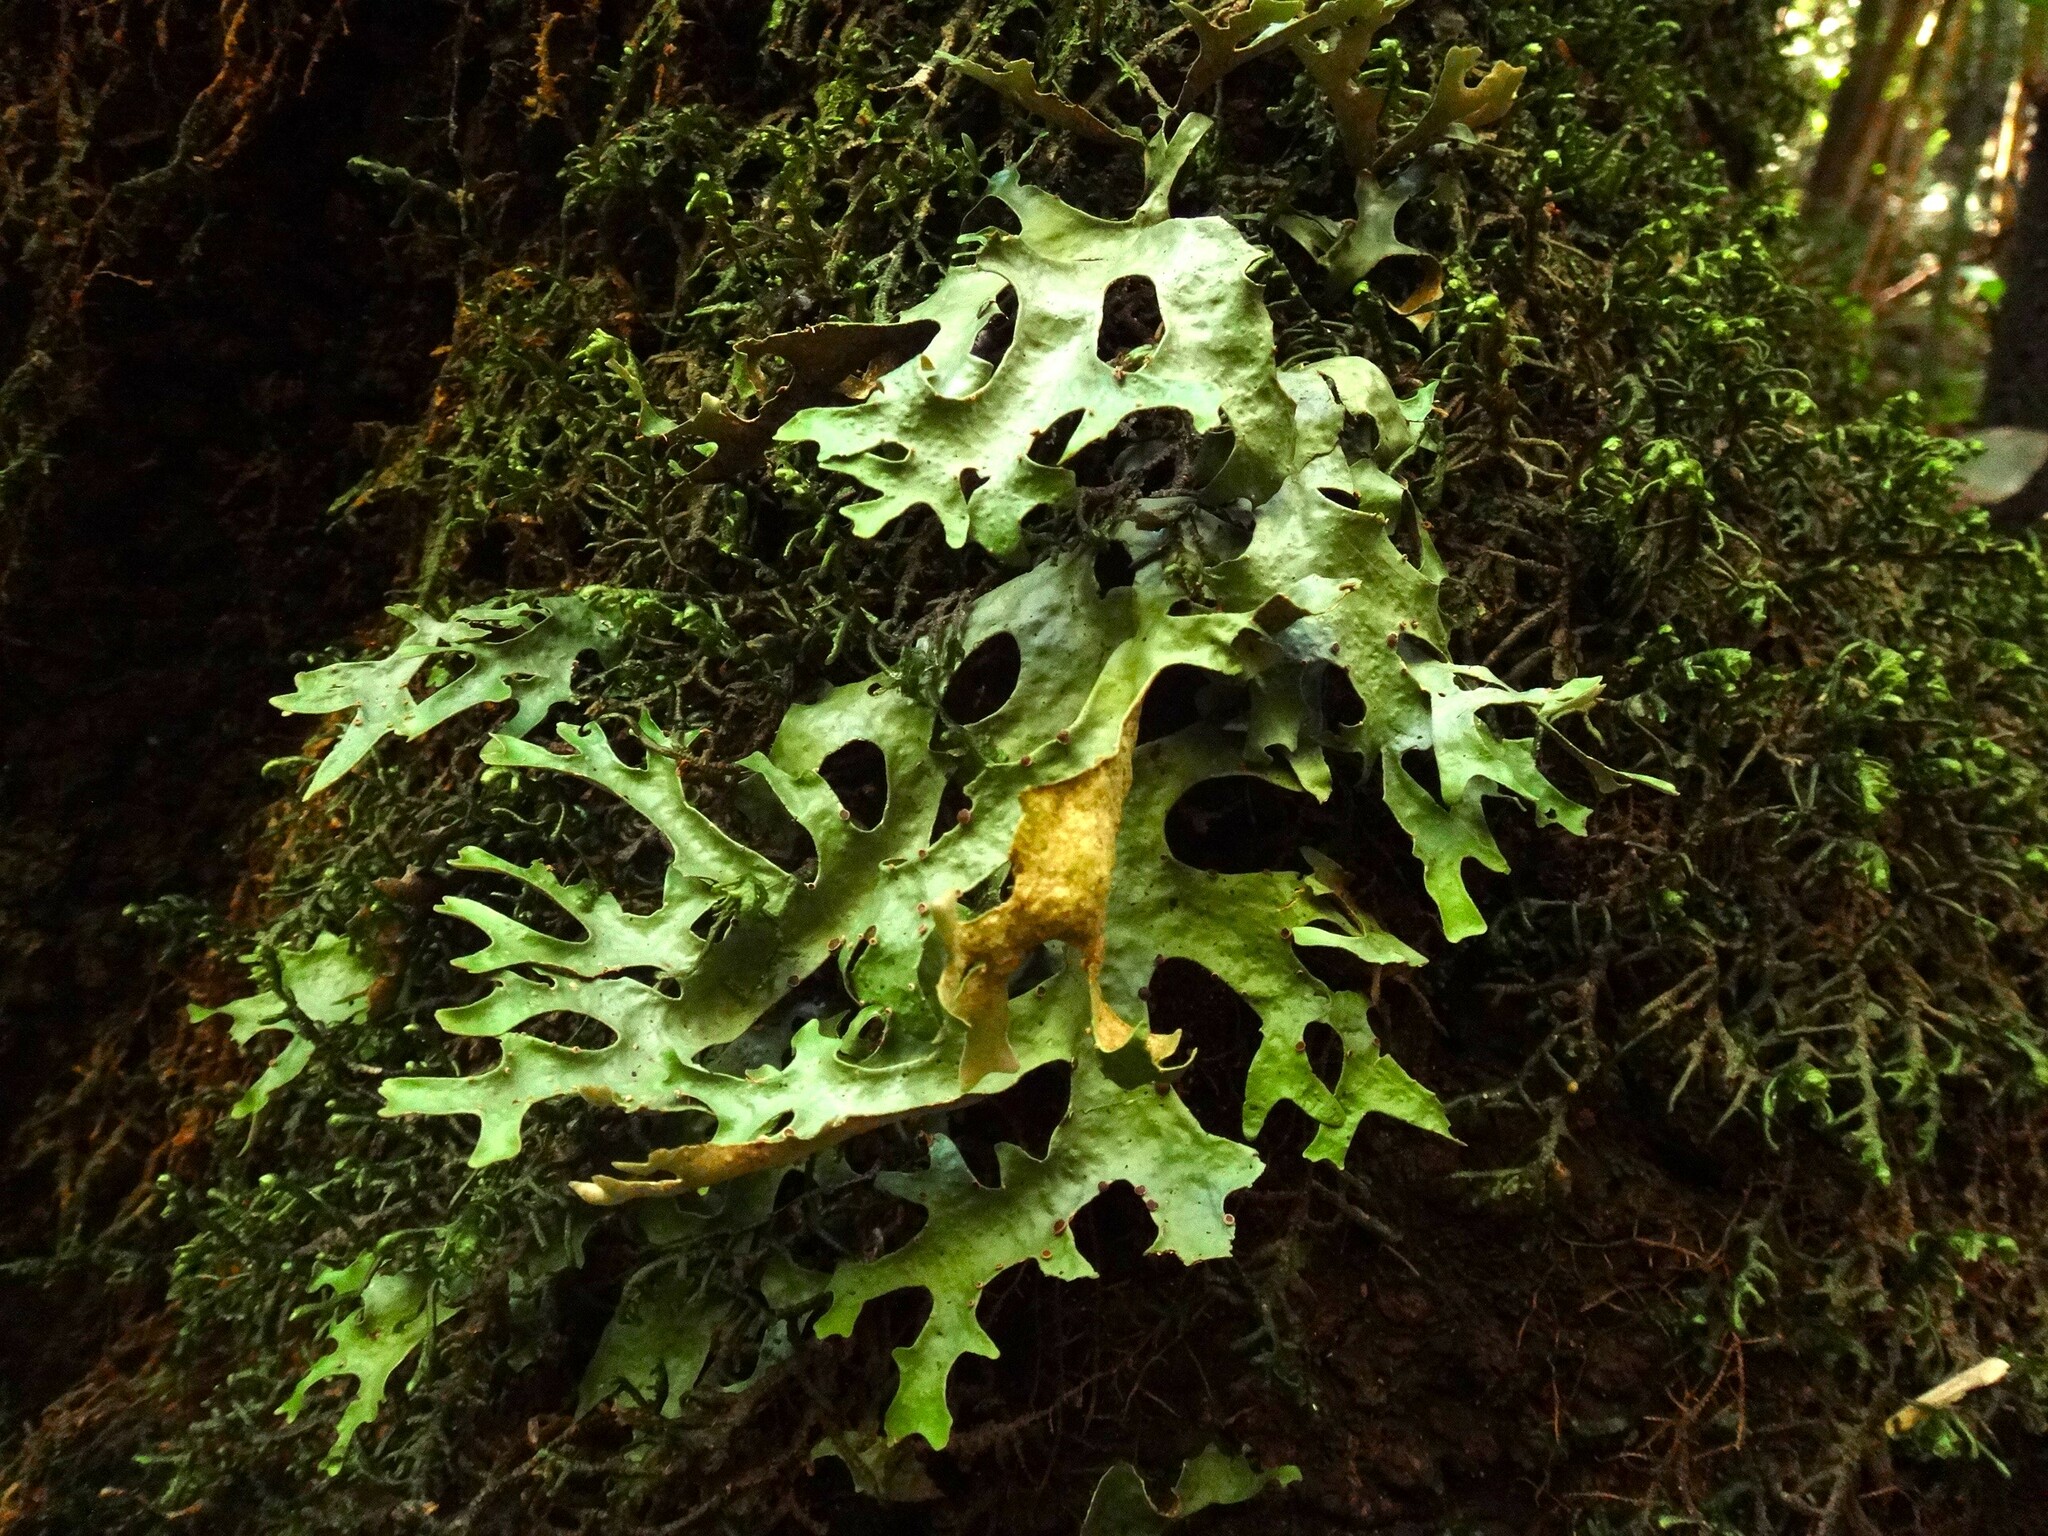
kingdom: Fungi
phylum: Ascomycota
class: Lecanoromycetes
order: Peltigerales
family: Lobariaceae
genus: Sticta
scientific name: Sticta canariensis
